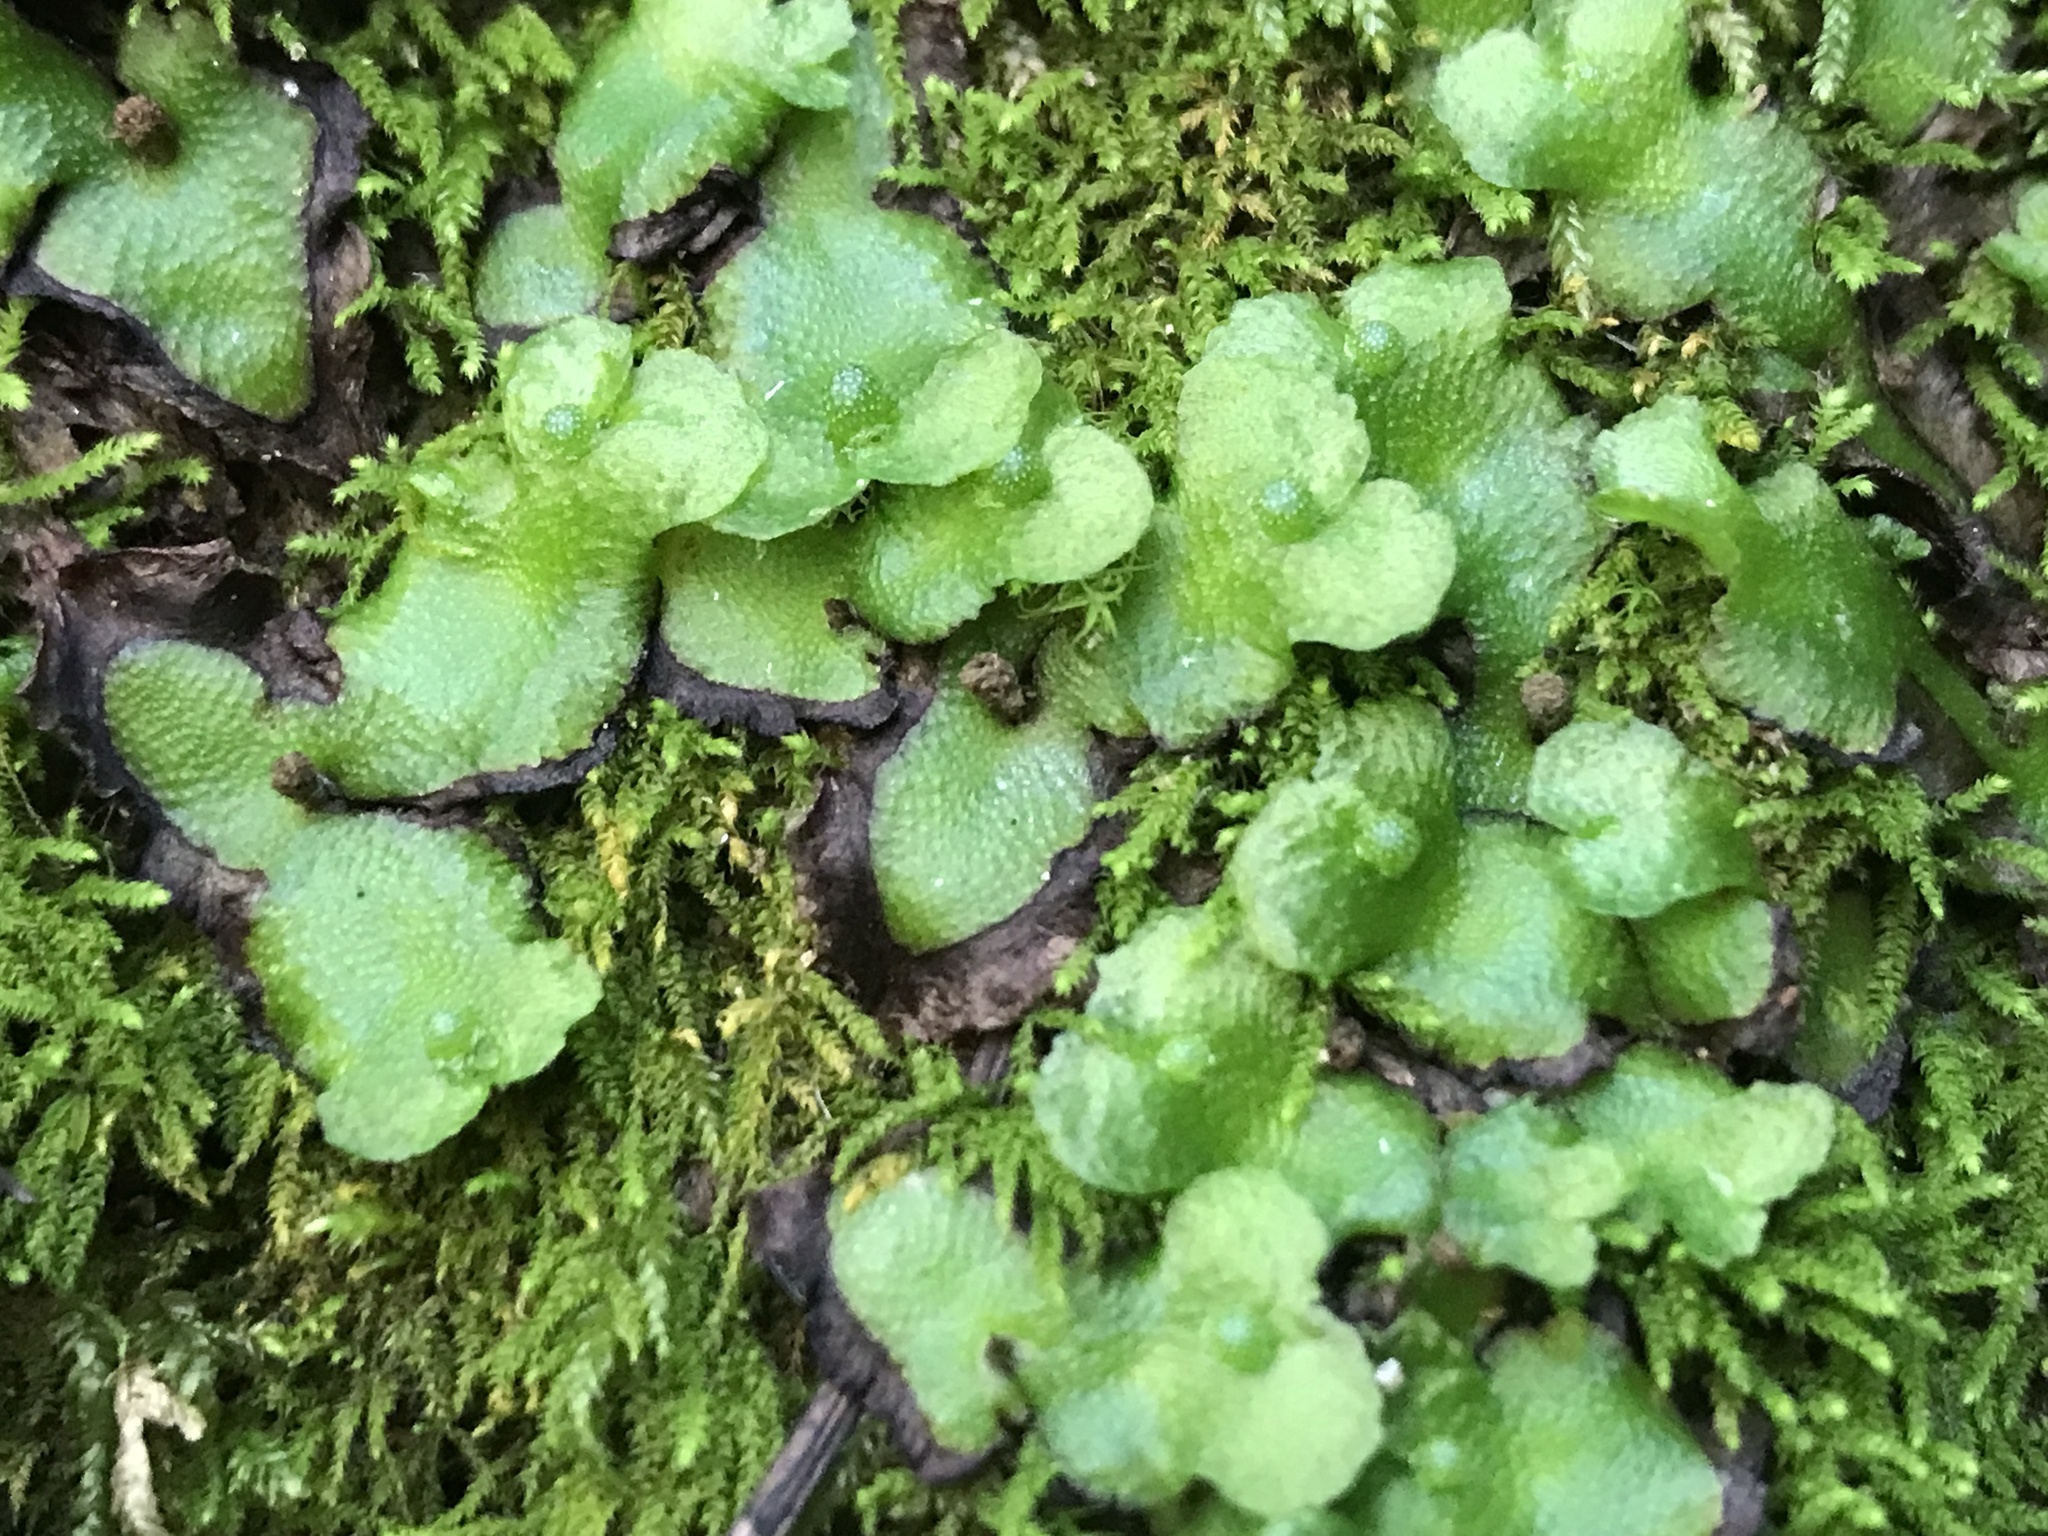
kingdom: Plantae
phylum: Marchantiophyta
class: Marchantiopsida
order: Marchantiales
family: Aytoniaceae
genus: Asterella
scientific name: Asterella californica
